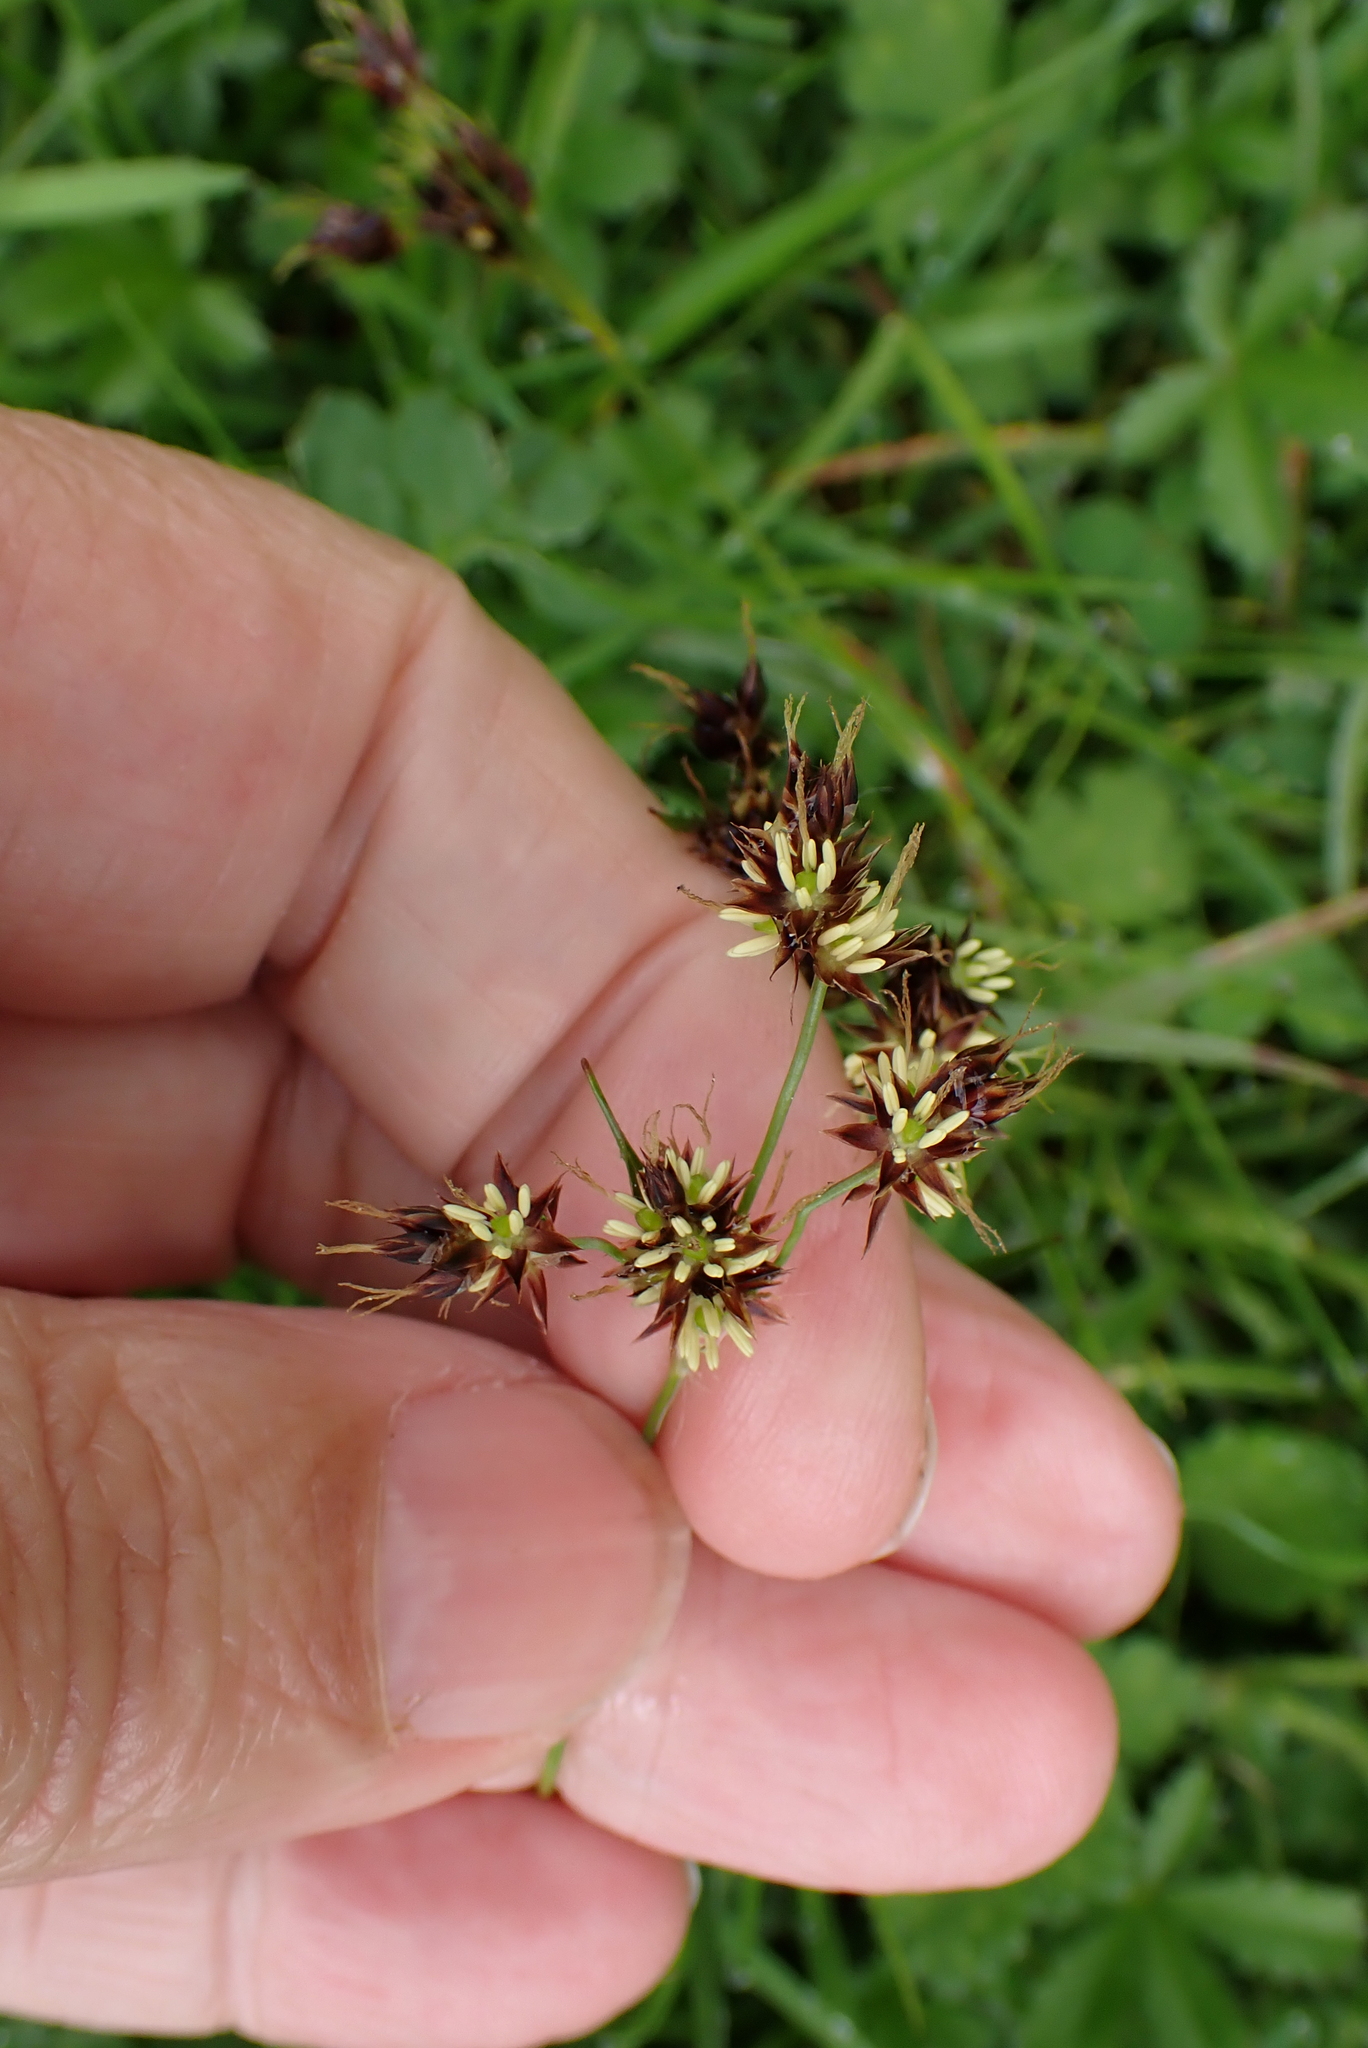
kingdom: Plantae
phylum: Tracheophyta
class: Liliopsida
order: Poales
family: Juncaceae
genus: Luzula
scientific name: Luzula campestris
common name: Field wood-rush
